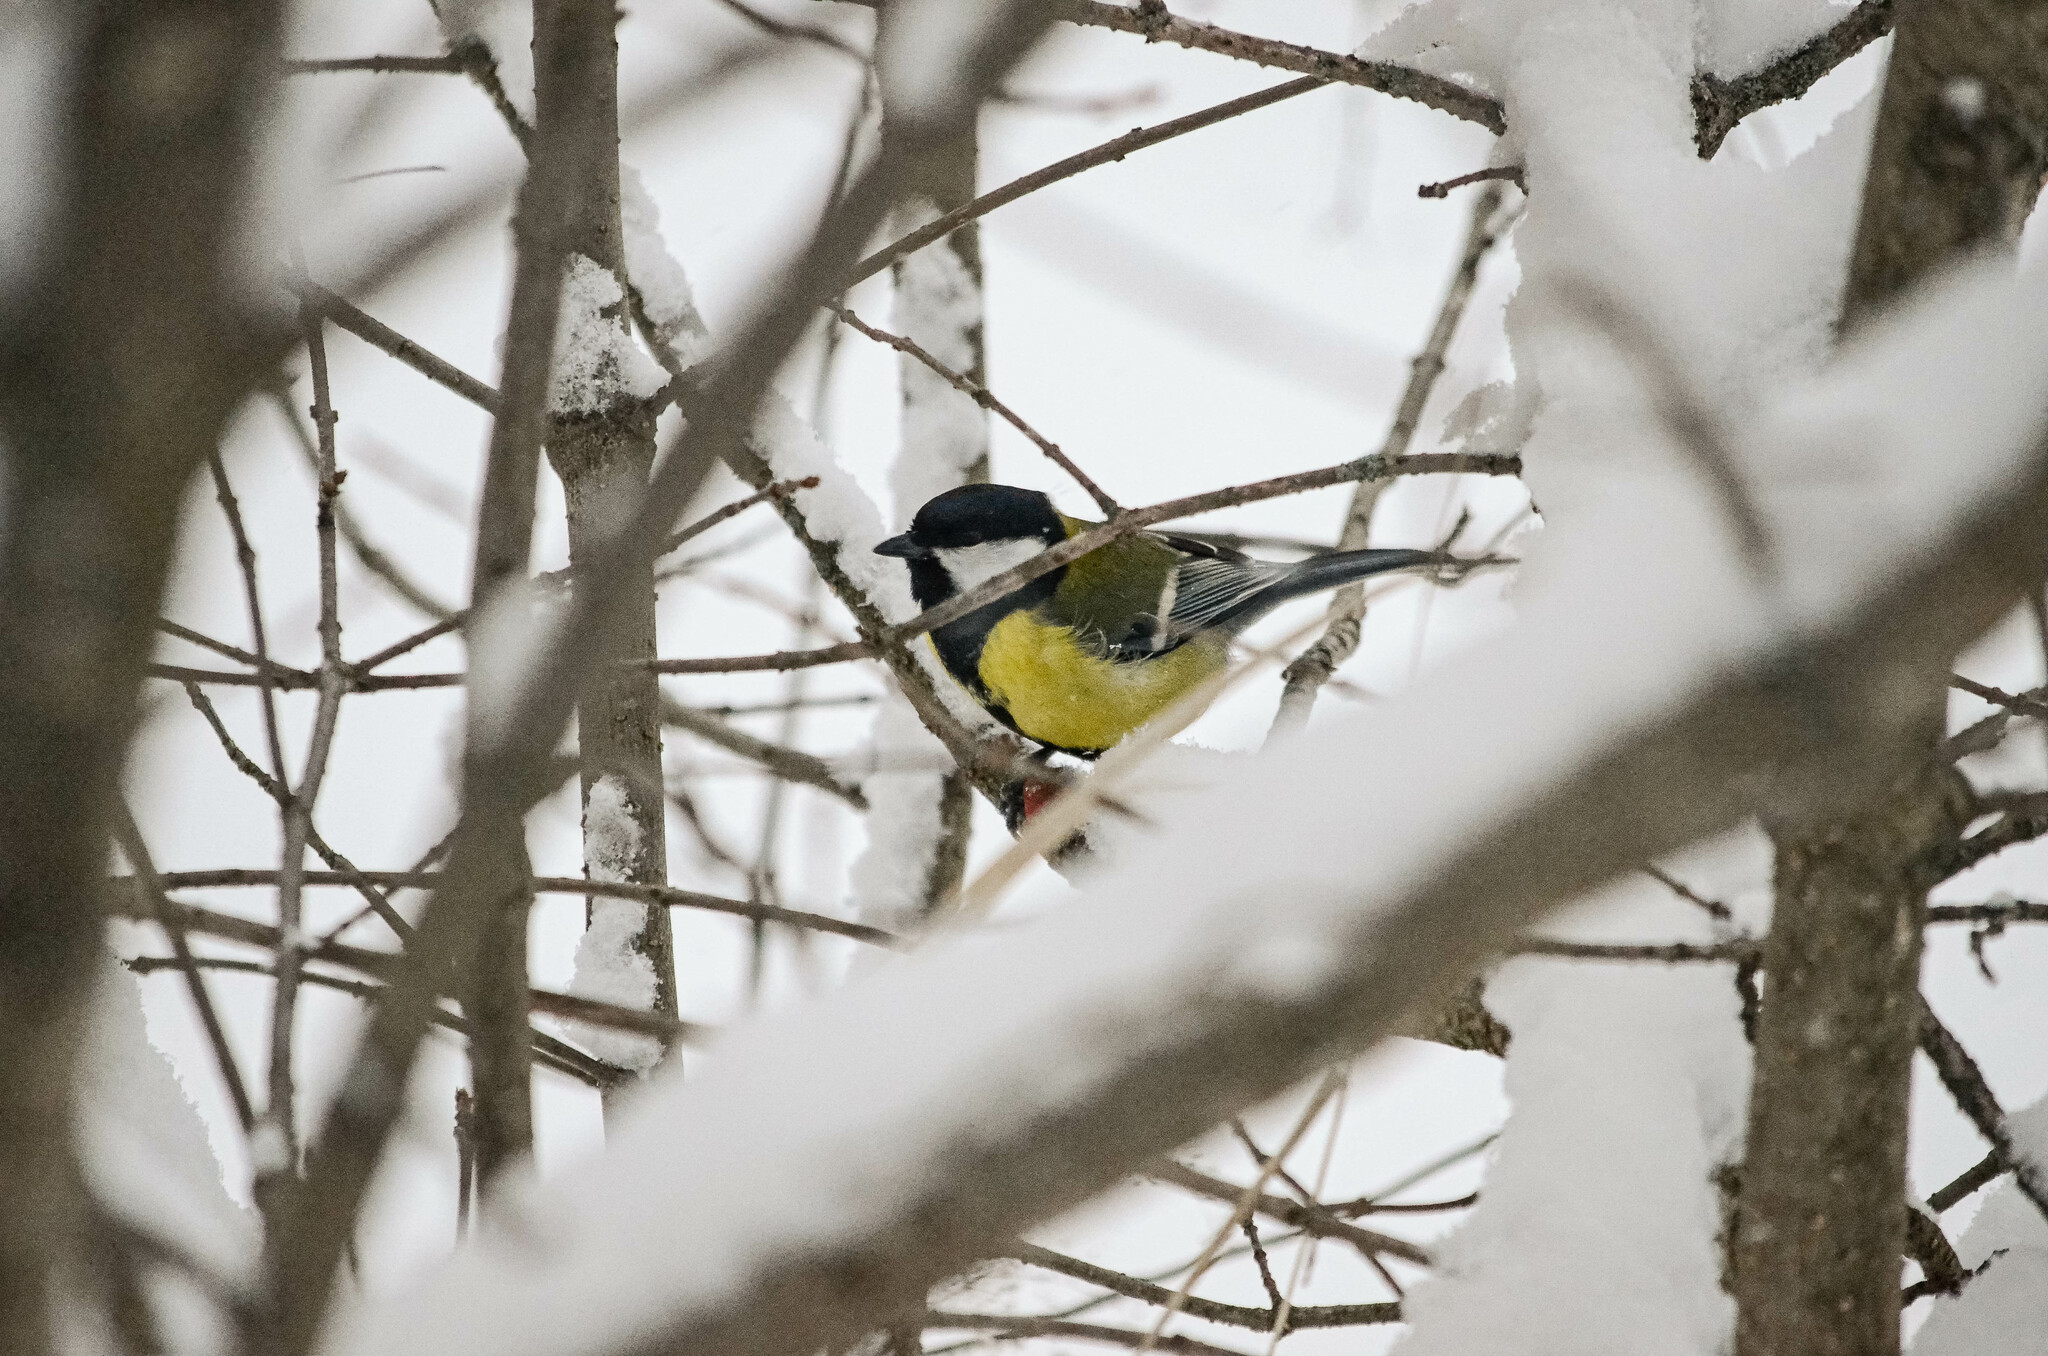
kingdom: Animalia
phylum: Chordata
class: Aves
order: Passeriformes
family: Paridae
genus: Parus
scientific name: Parus major
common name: Great tit
